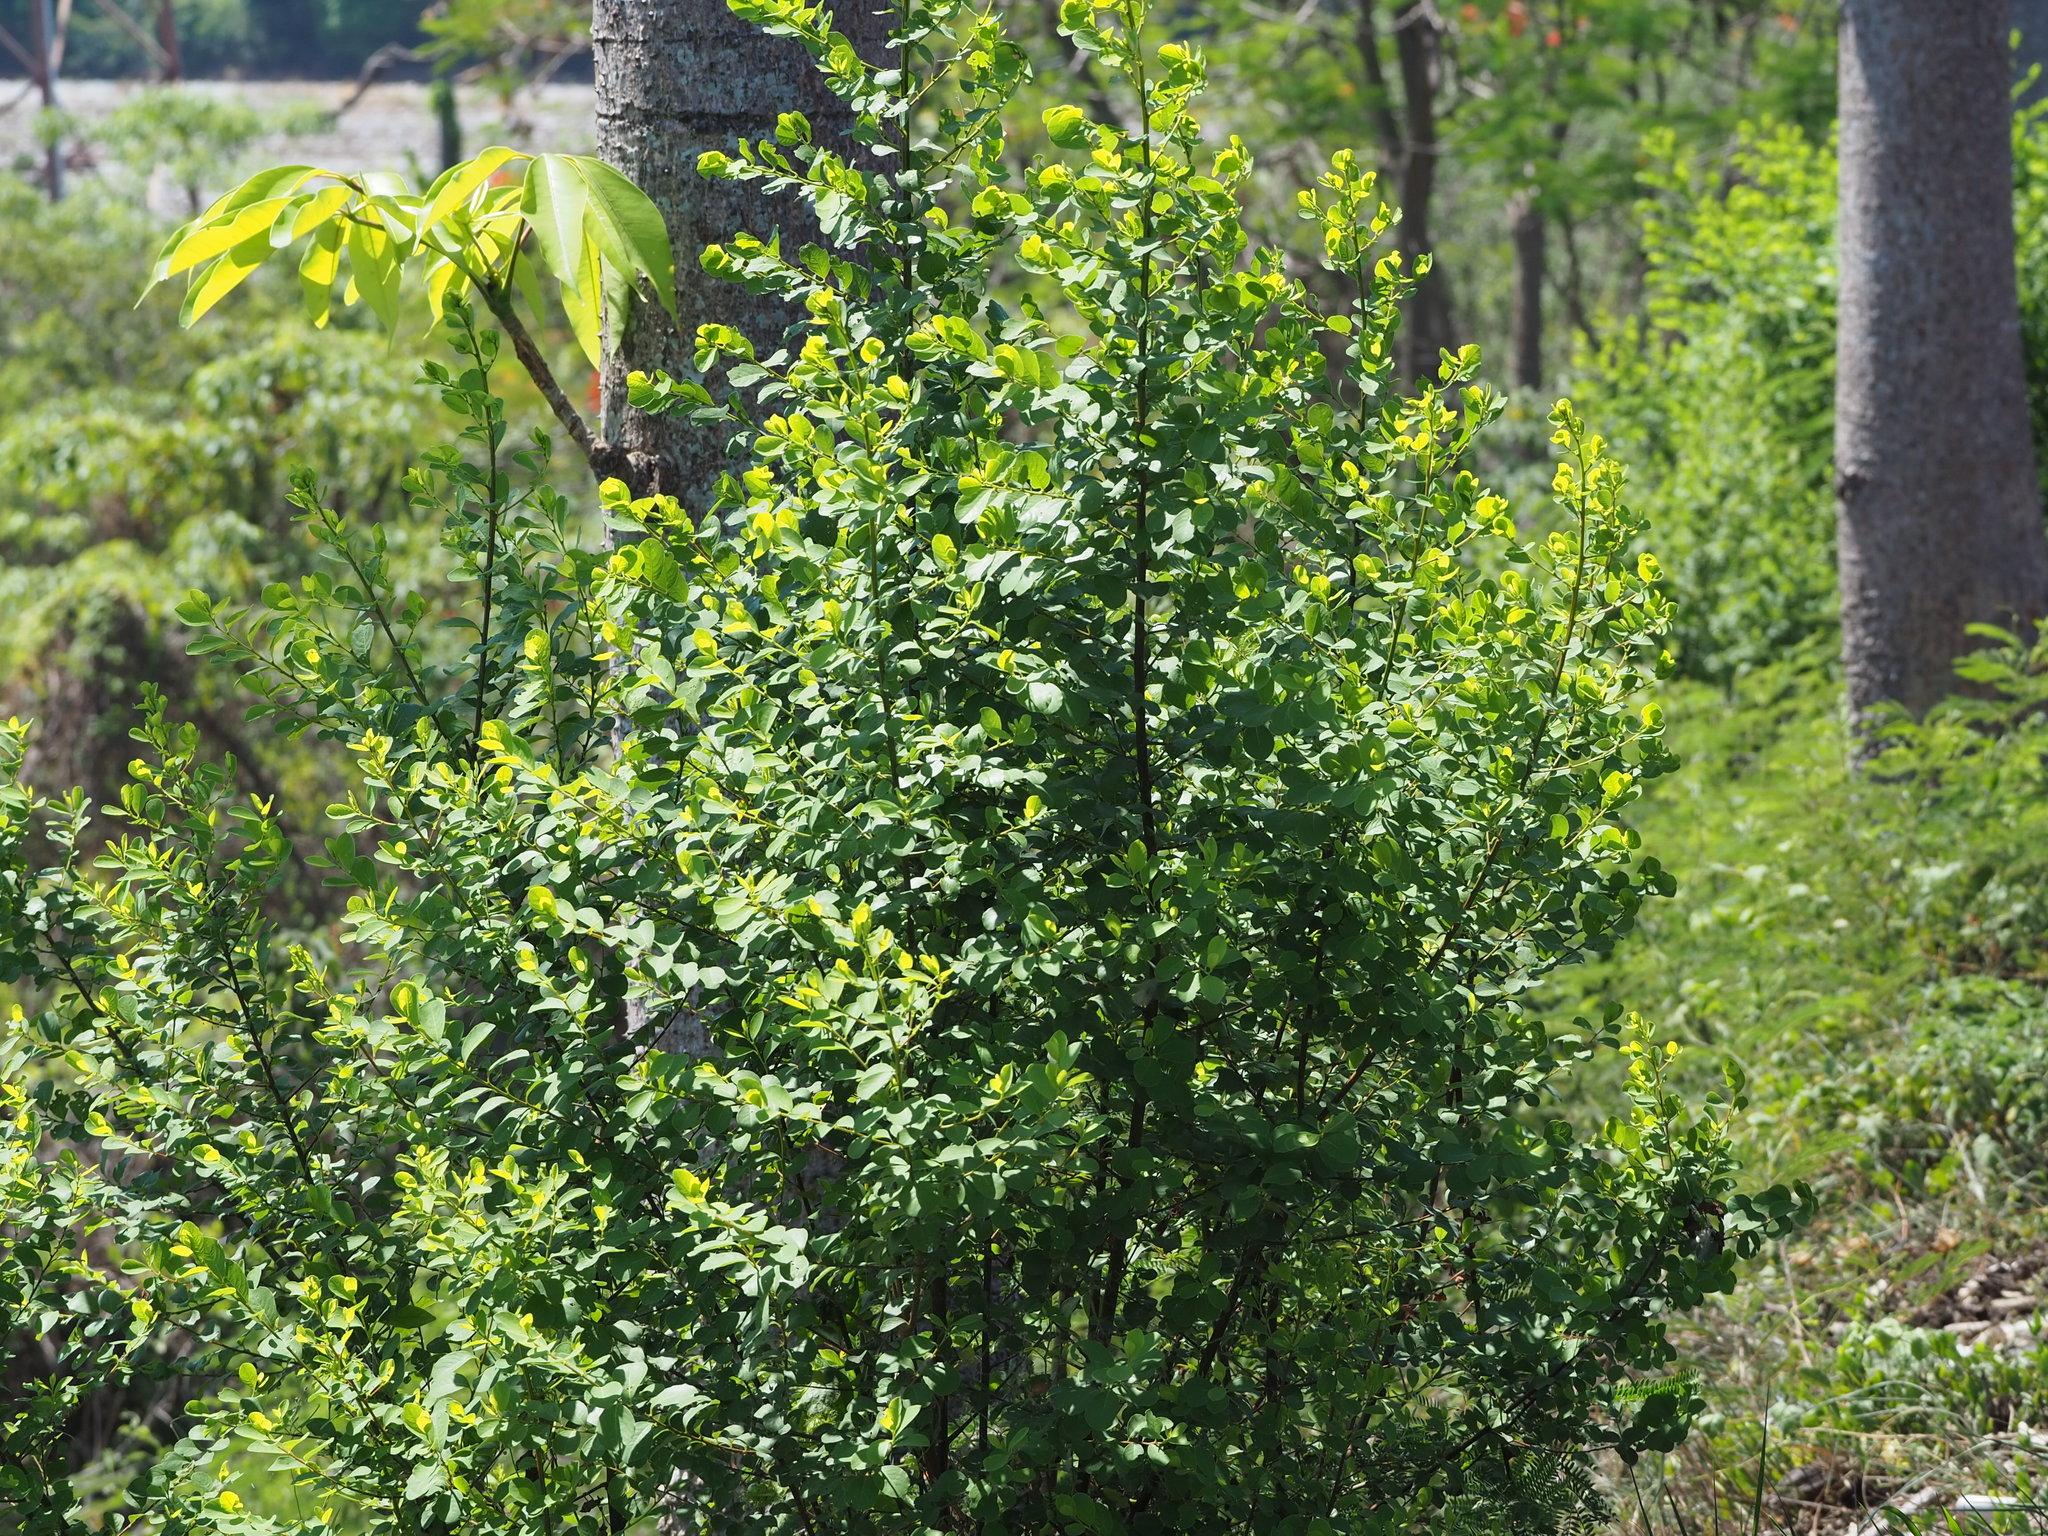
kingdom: Plantae
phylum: Tracheophyta
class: Magnoliopsida
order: Malpighiales
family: Phyllanthaceae
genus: Flueggea
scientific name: Flueggea virosa
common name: Common bushweed
